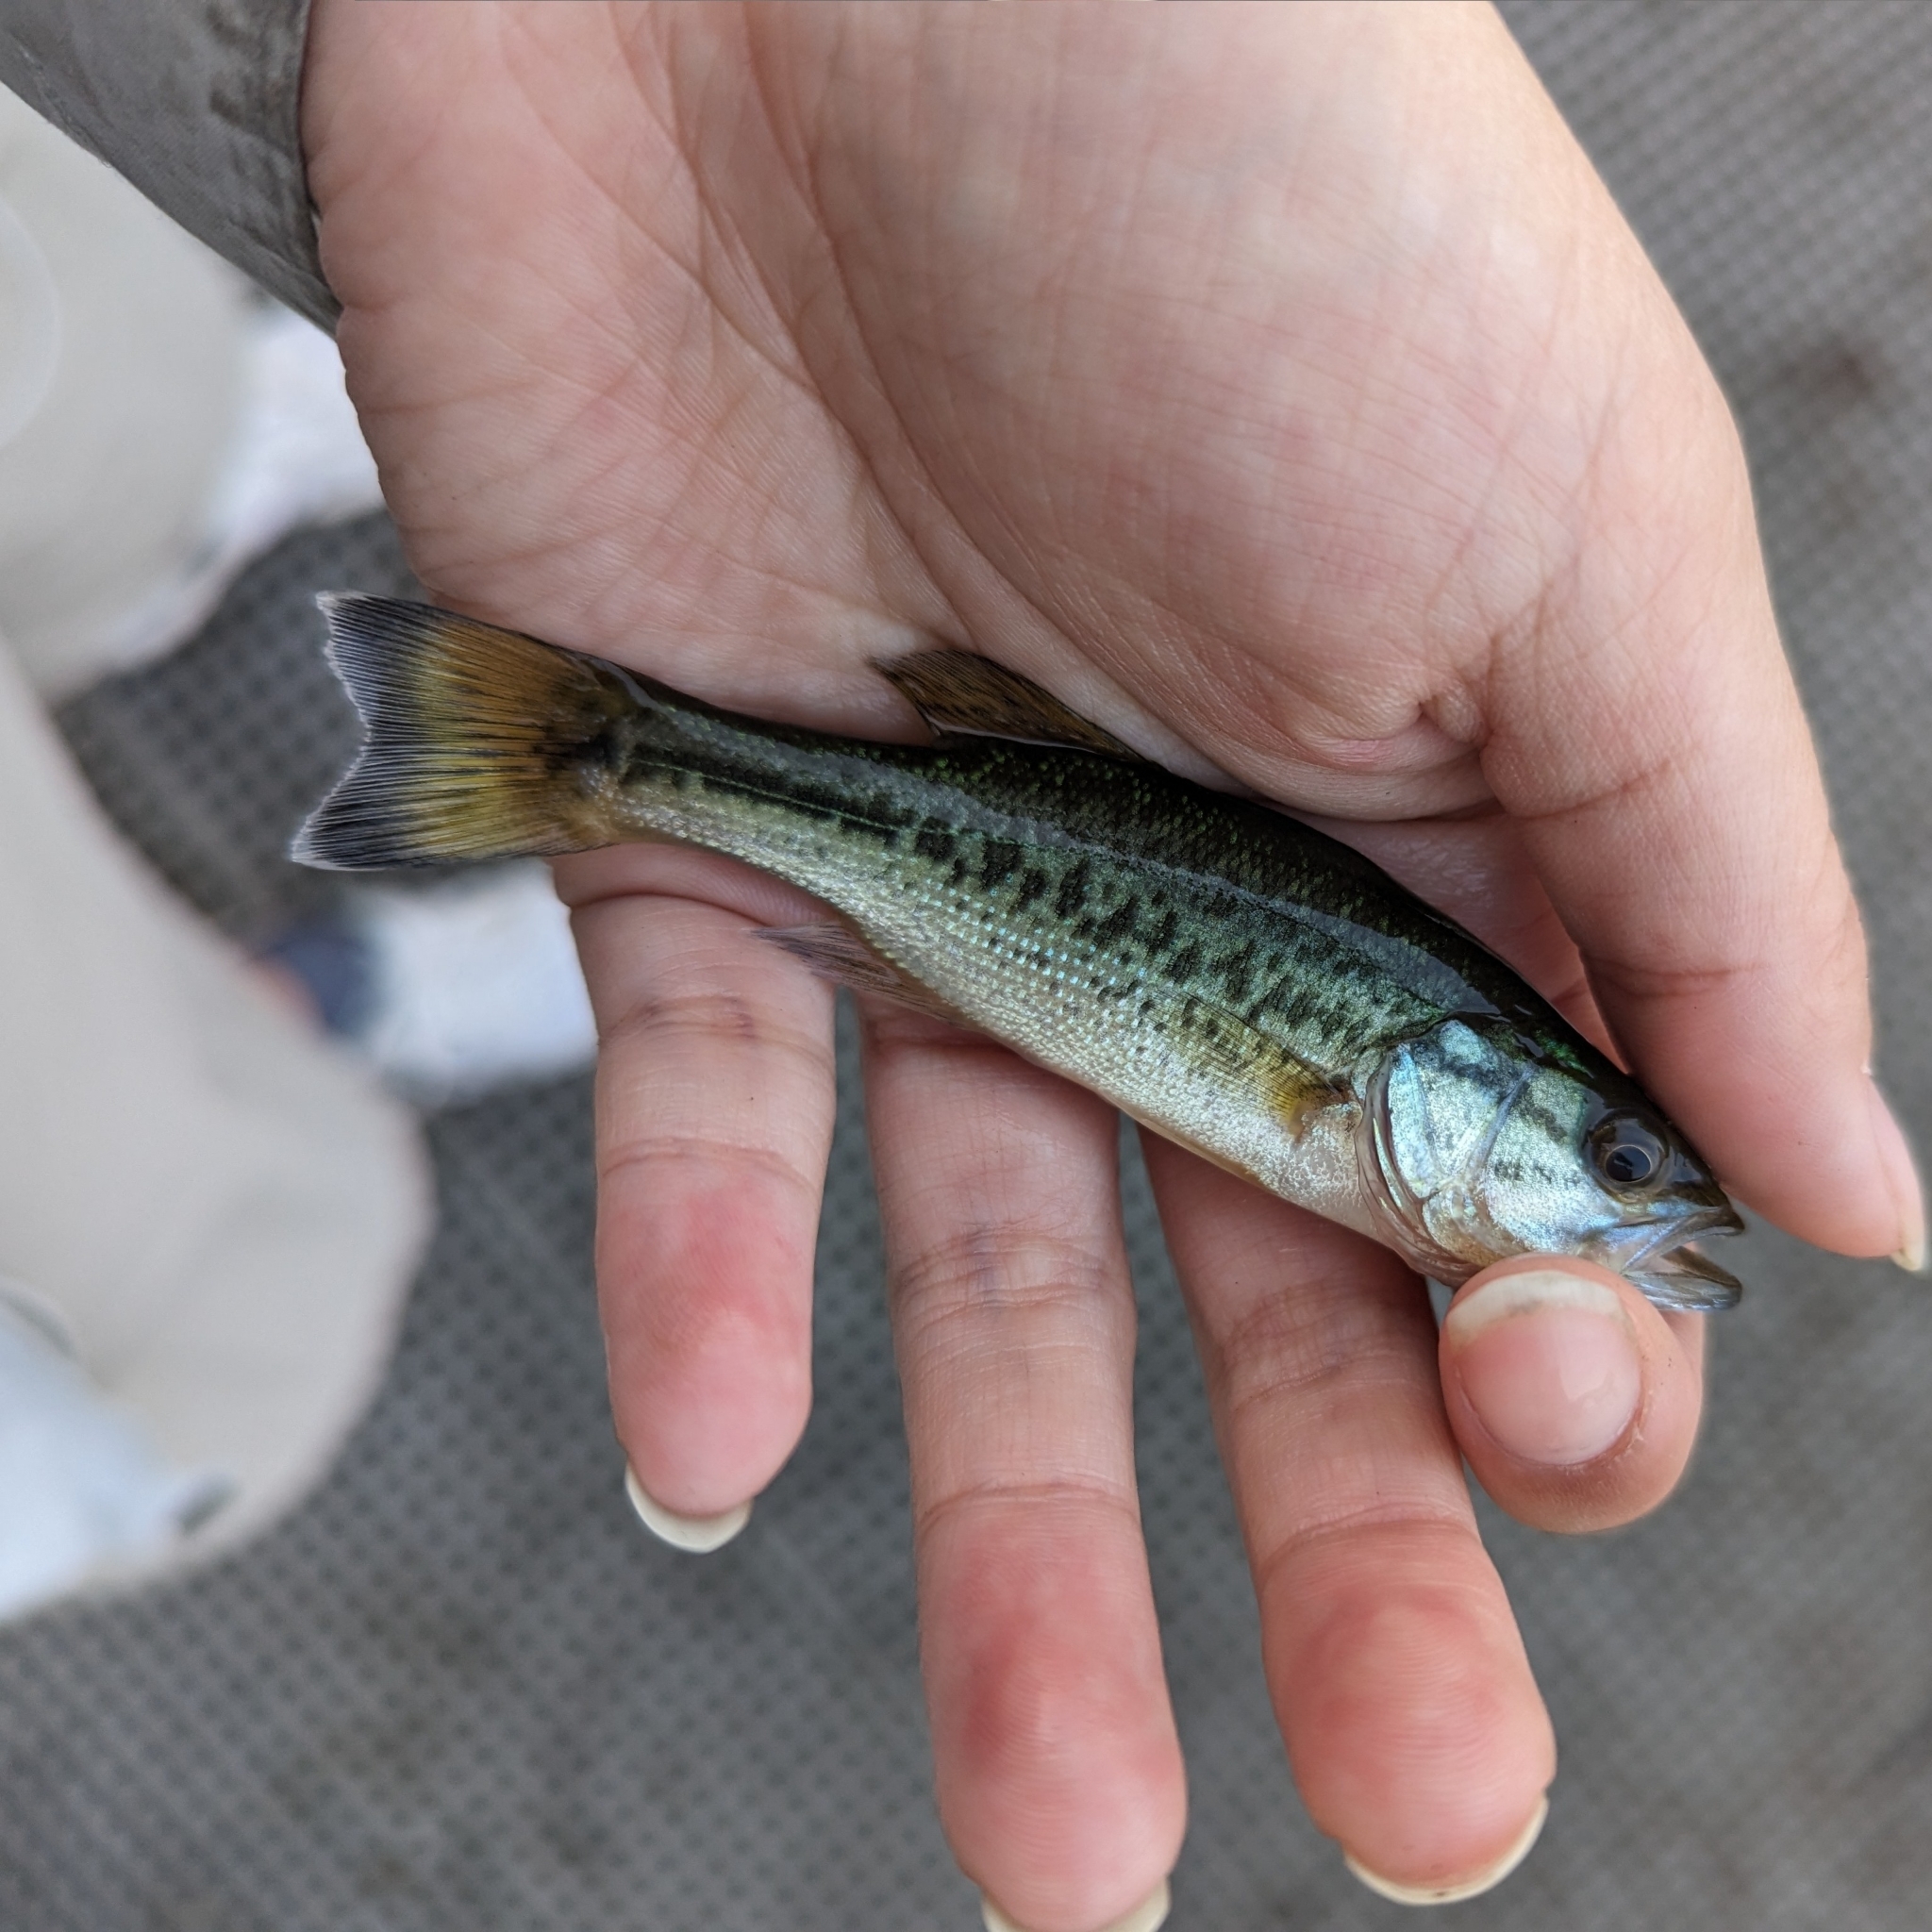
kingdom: Animalia
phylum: Chordata
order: Perciformes
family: Centrarchidae
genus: Micropterus
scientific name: Micropterus
